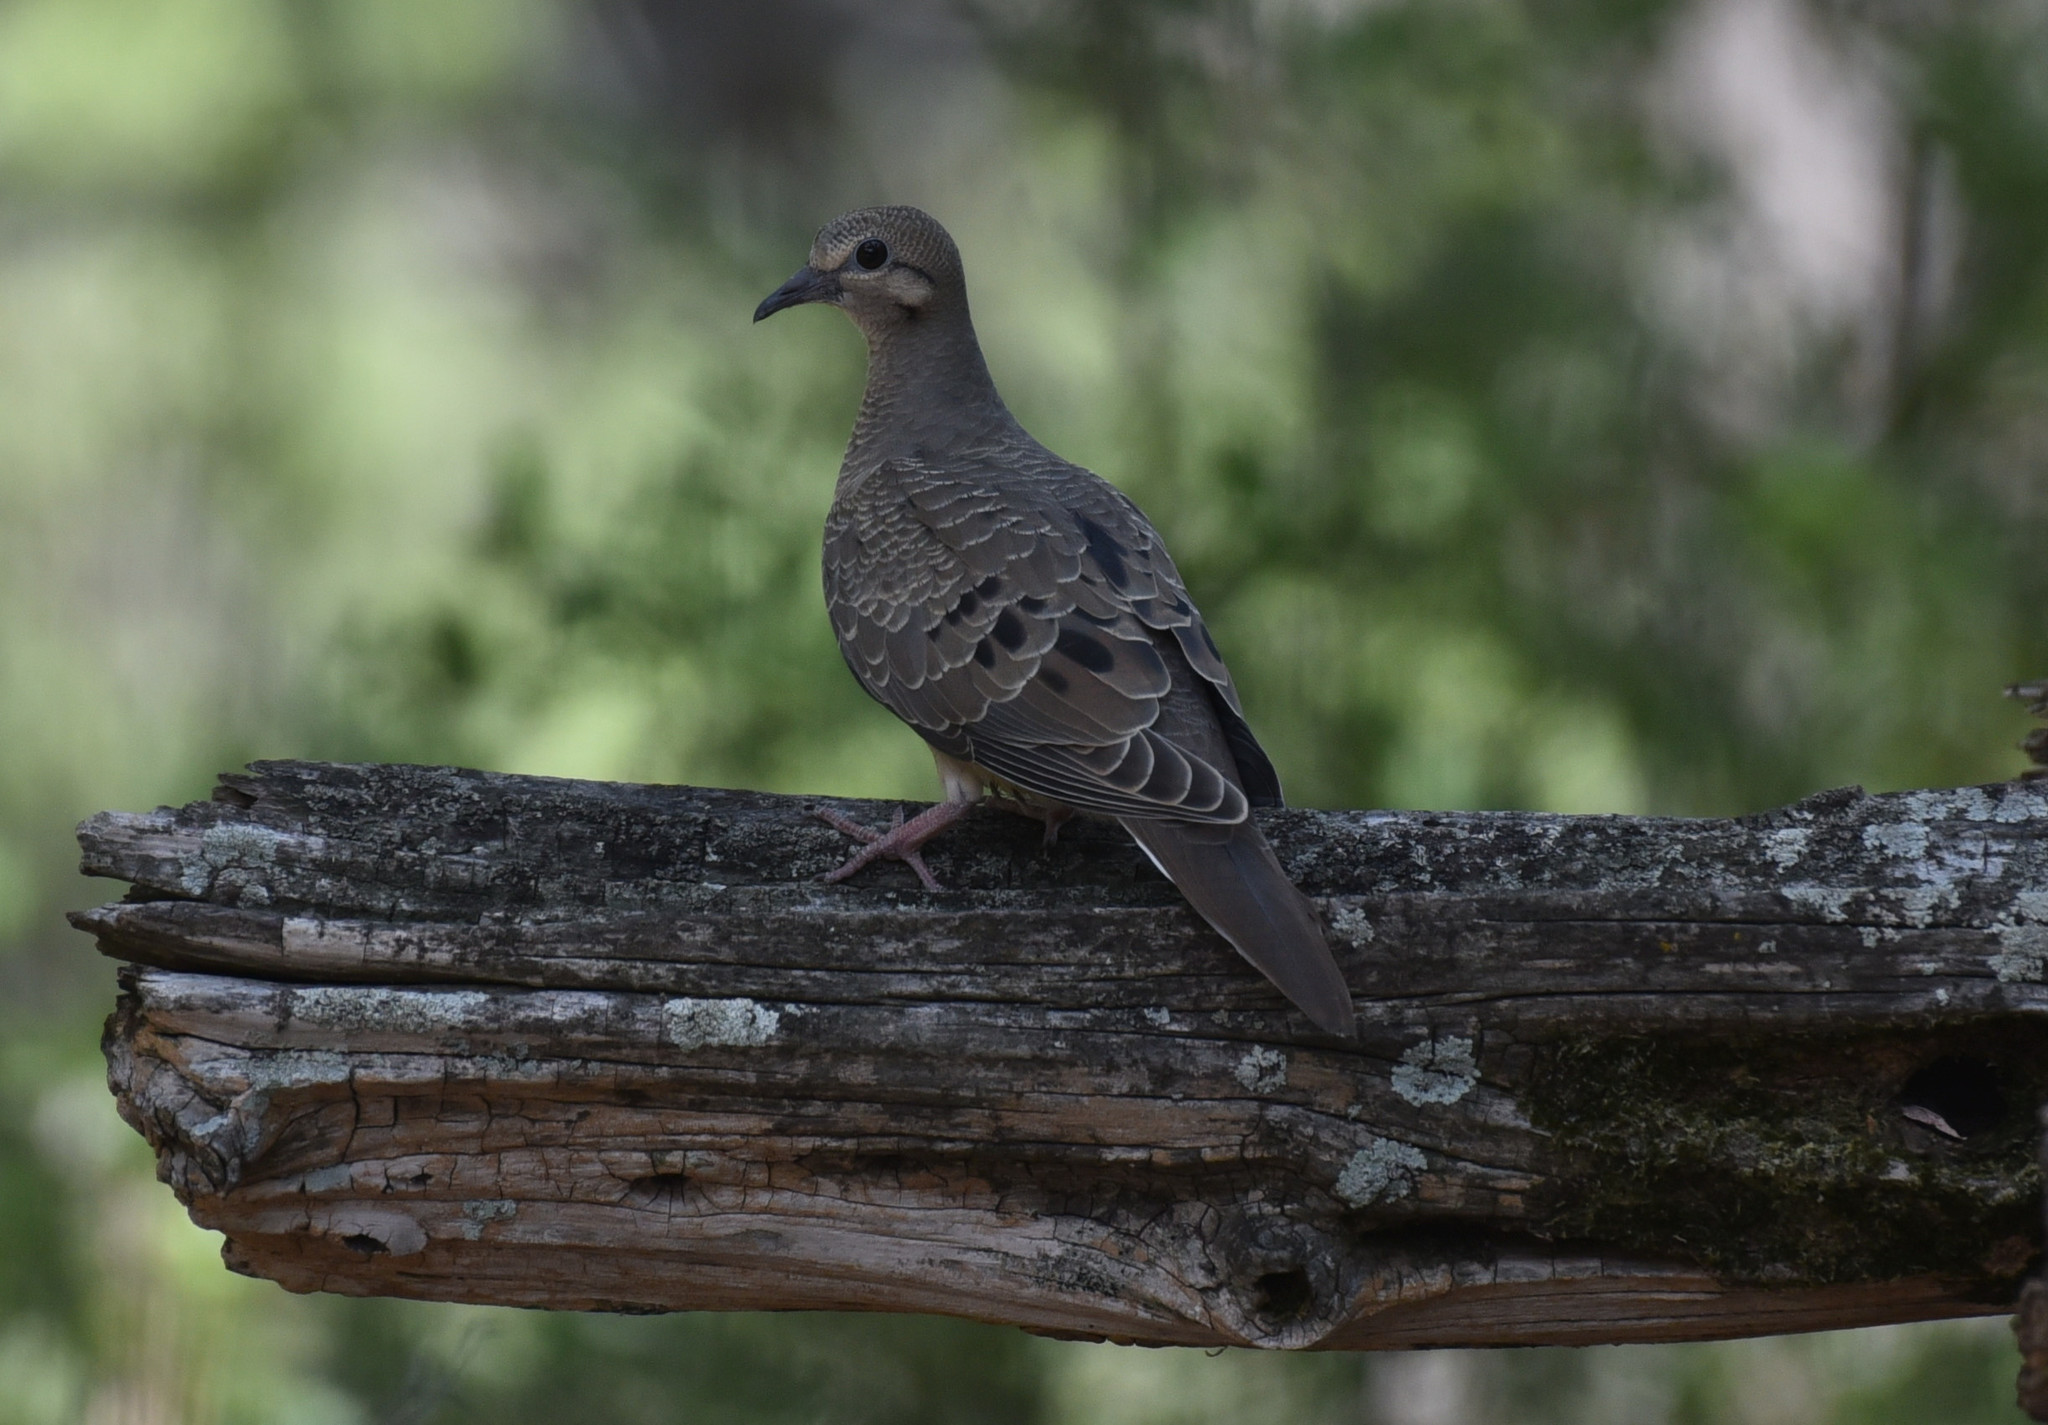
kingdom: Animalia
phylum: Chordata
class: Aves
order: Columbiformes
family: Columbidae
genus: Zenaida
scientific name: Zenaida macroura
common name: Mourning dove
